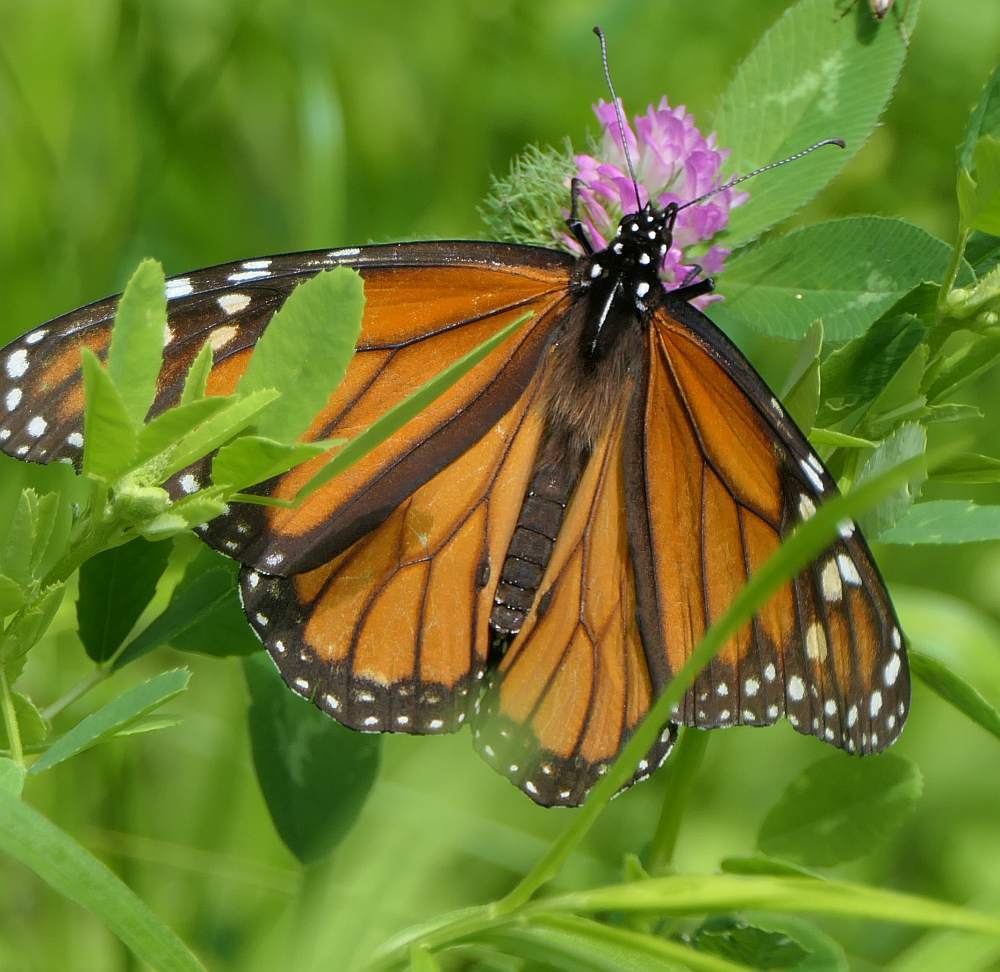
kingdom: Animalia
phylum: Arthropoda
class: Insecta
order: Lepidoptera
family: Nymphalidae
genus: Danaus
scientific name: Danaus plexippus
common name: Monarch
